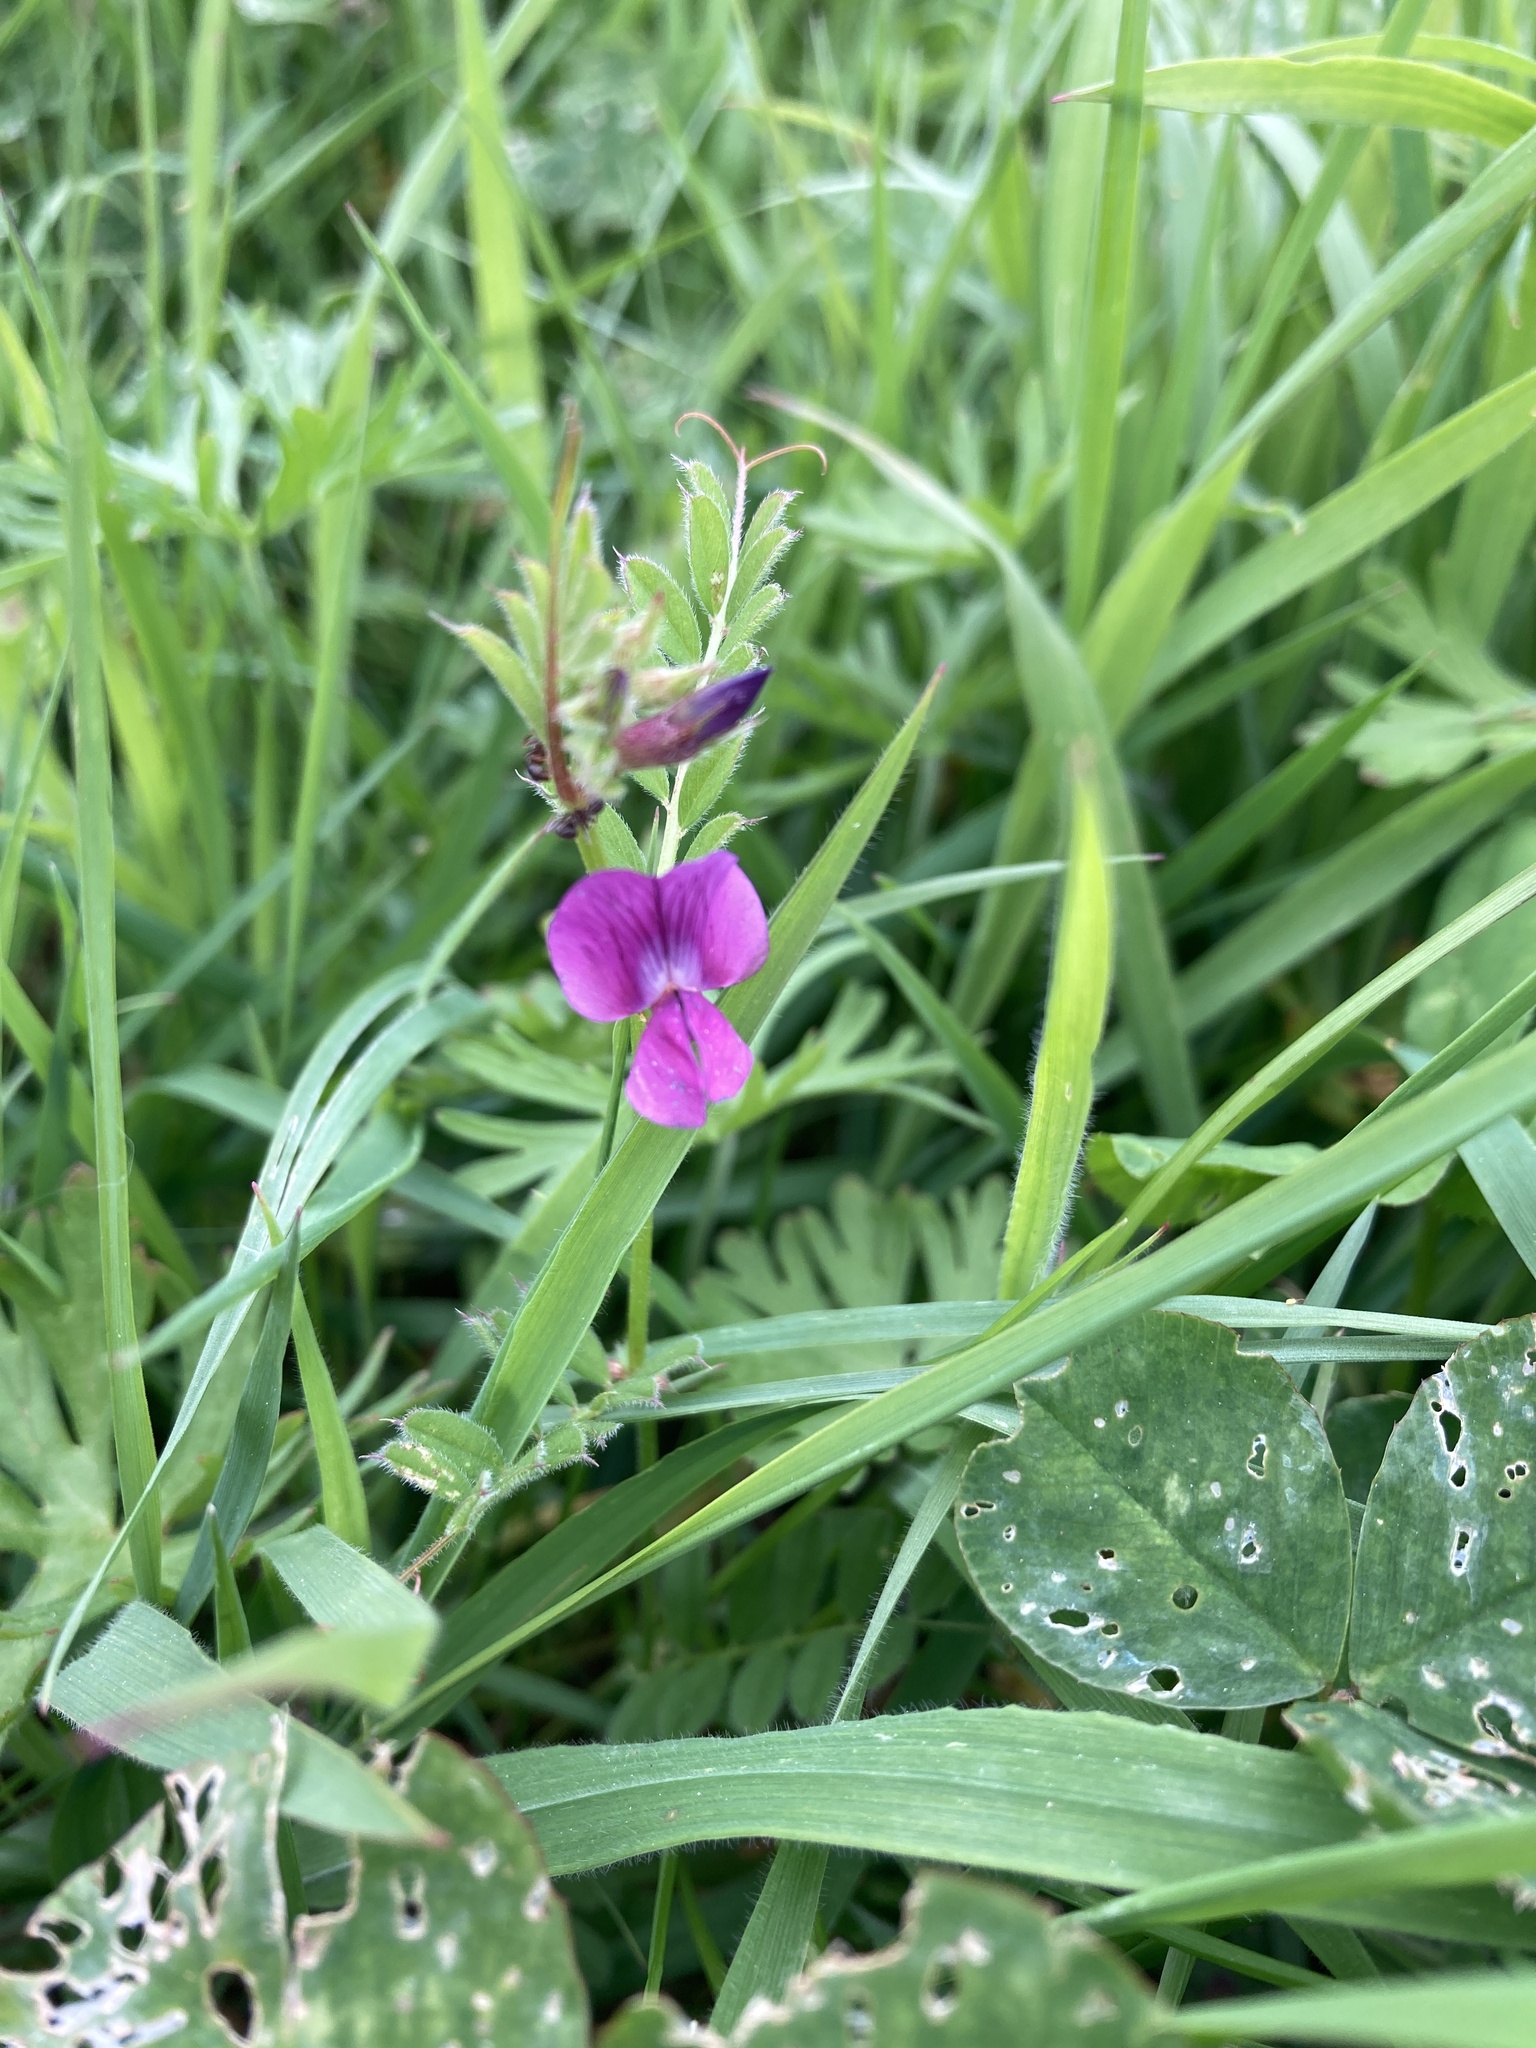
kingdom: Plantae
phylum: Tracheophyta
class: Magnoliopsida
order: Fabales
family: Fabaceae
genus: Vicia
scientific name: Vicia sativa
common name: Garden vetch
